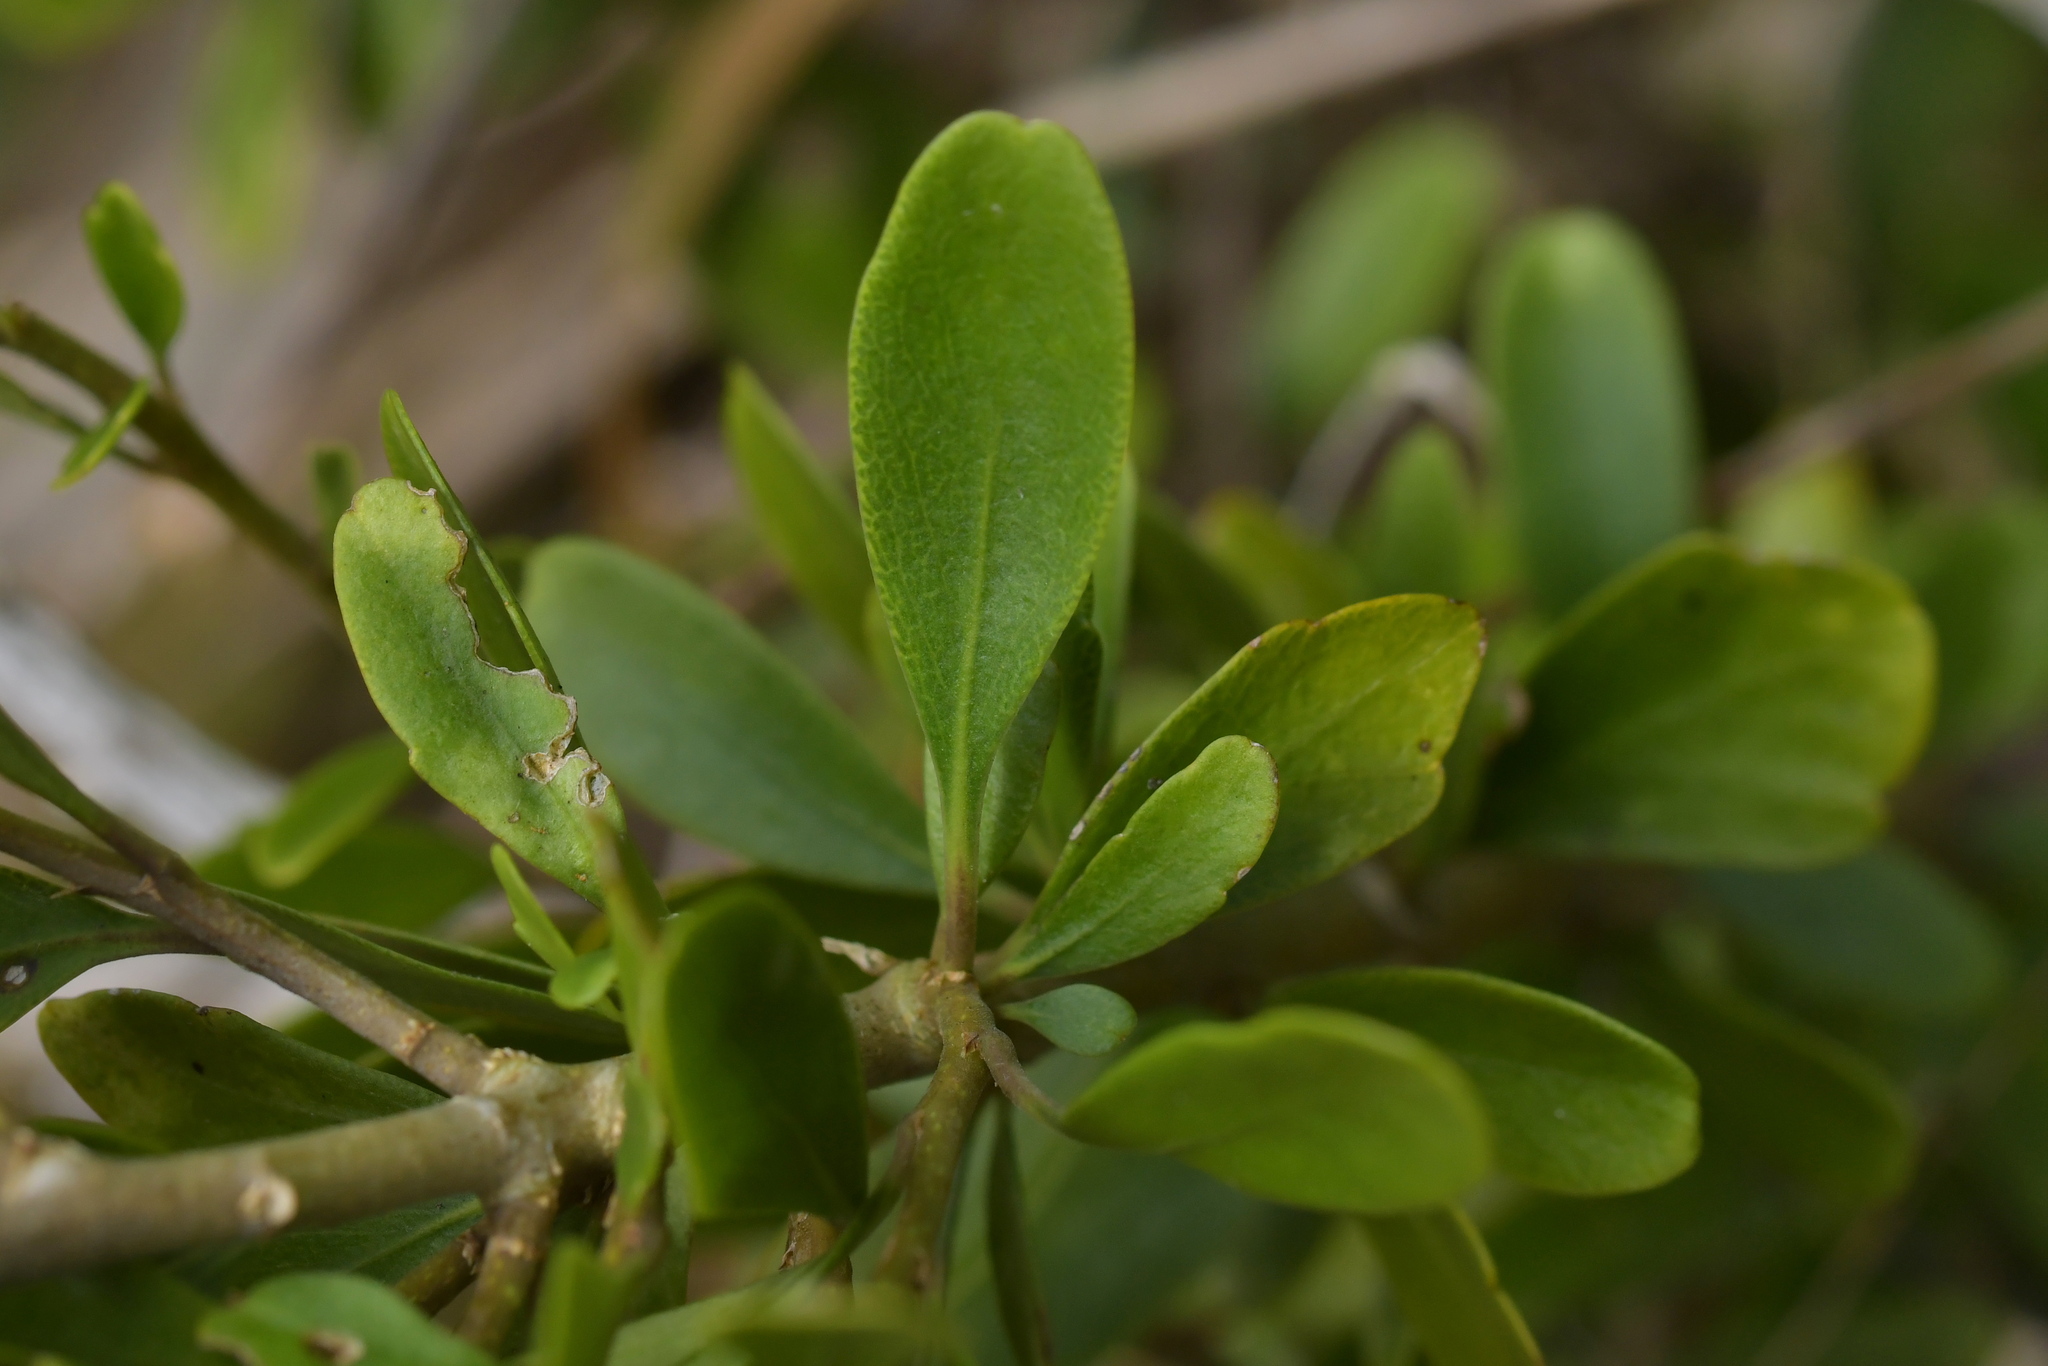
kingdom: Plantae
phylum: Tracheophyta
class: Magnoliopsida
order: Malpighiales
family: Violaceae
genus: Melicytus
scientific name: Melicytus obovatus
